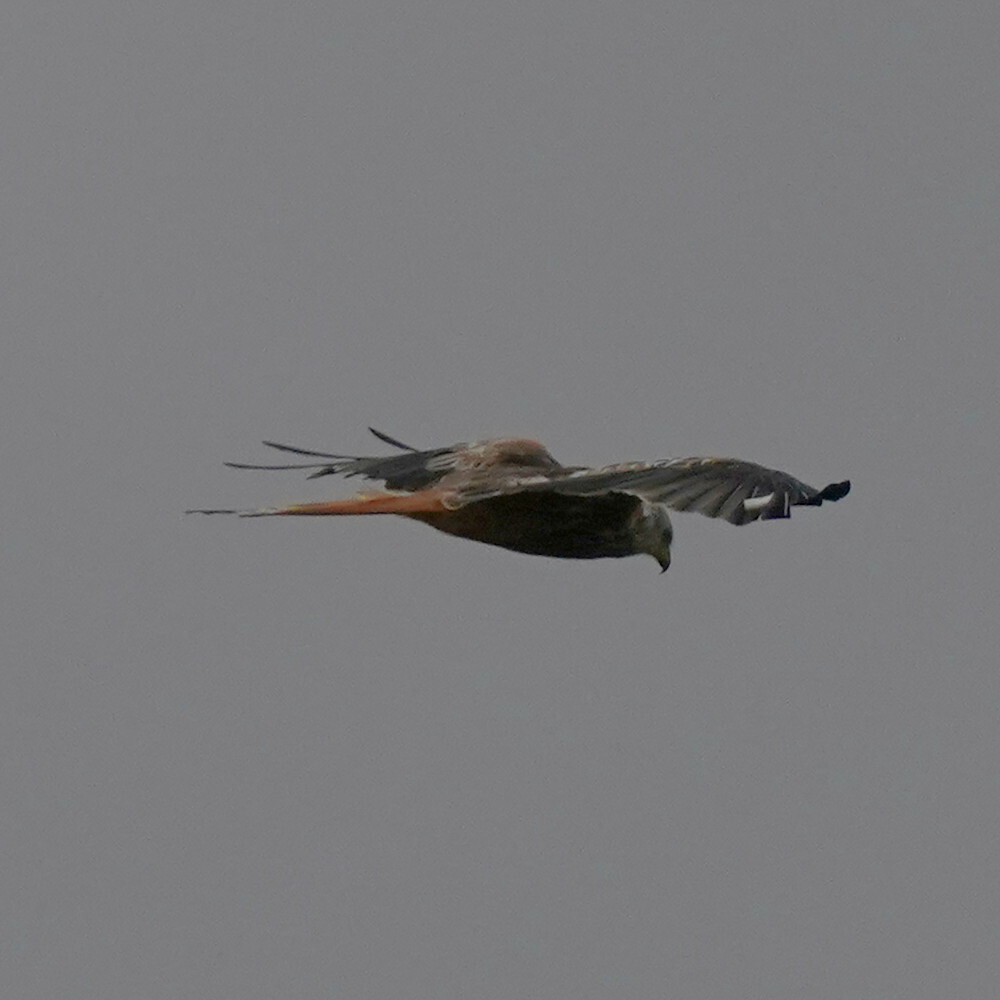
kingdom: Animalia
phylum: Chordata
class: Aves
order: Accipitriformes
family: Accipitridae
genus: Milvus
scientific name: Milvus milvus
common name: Red kite
